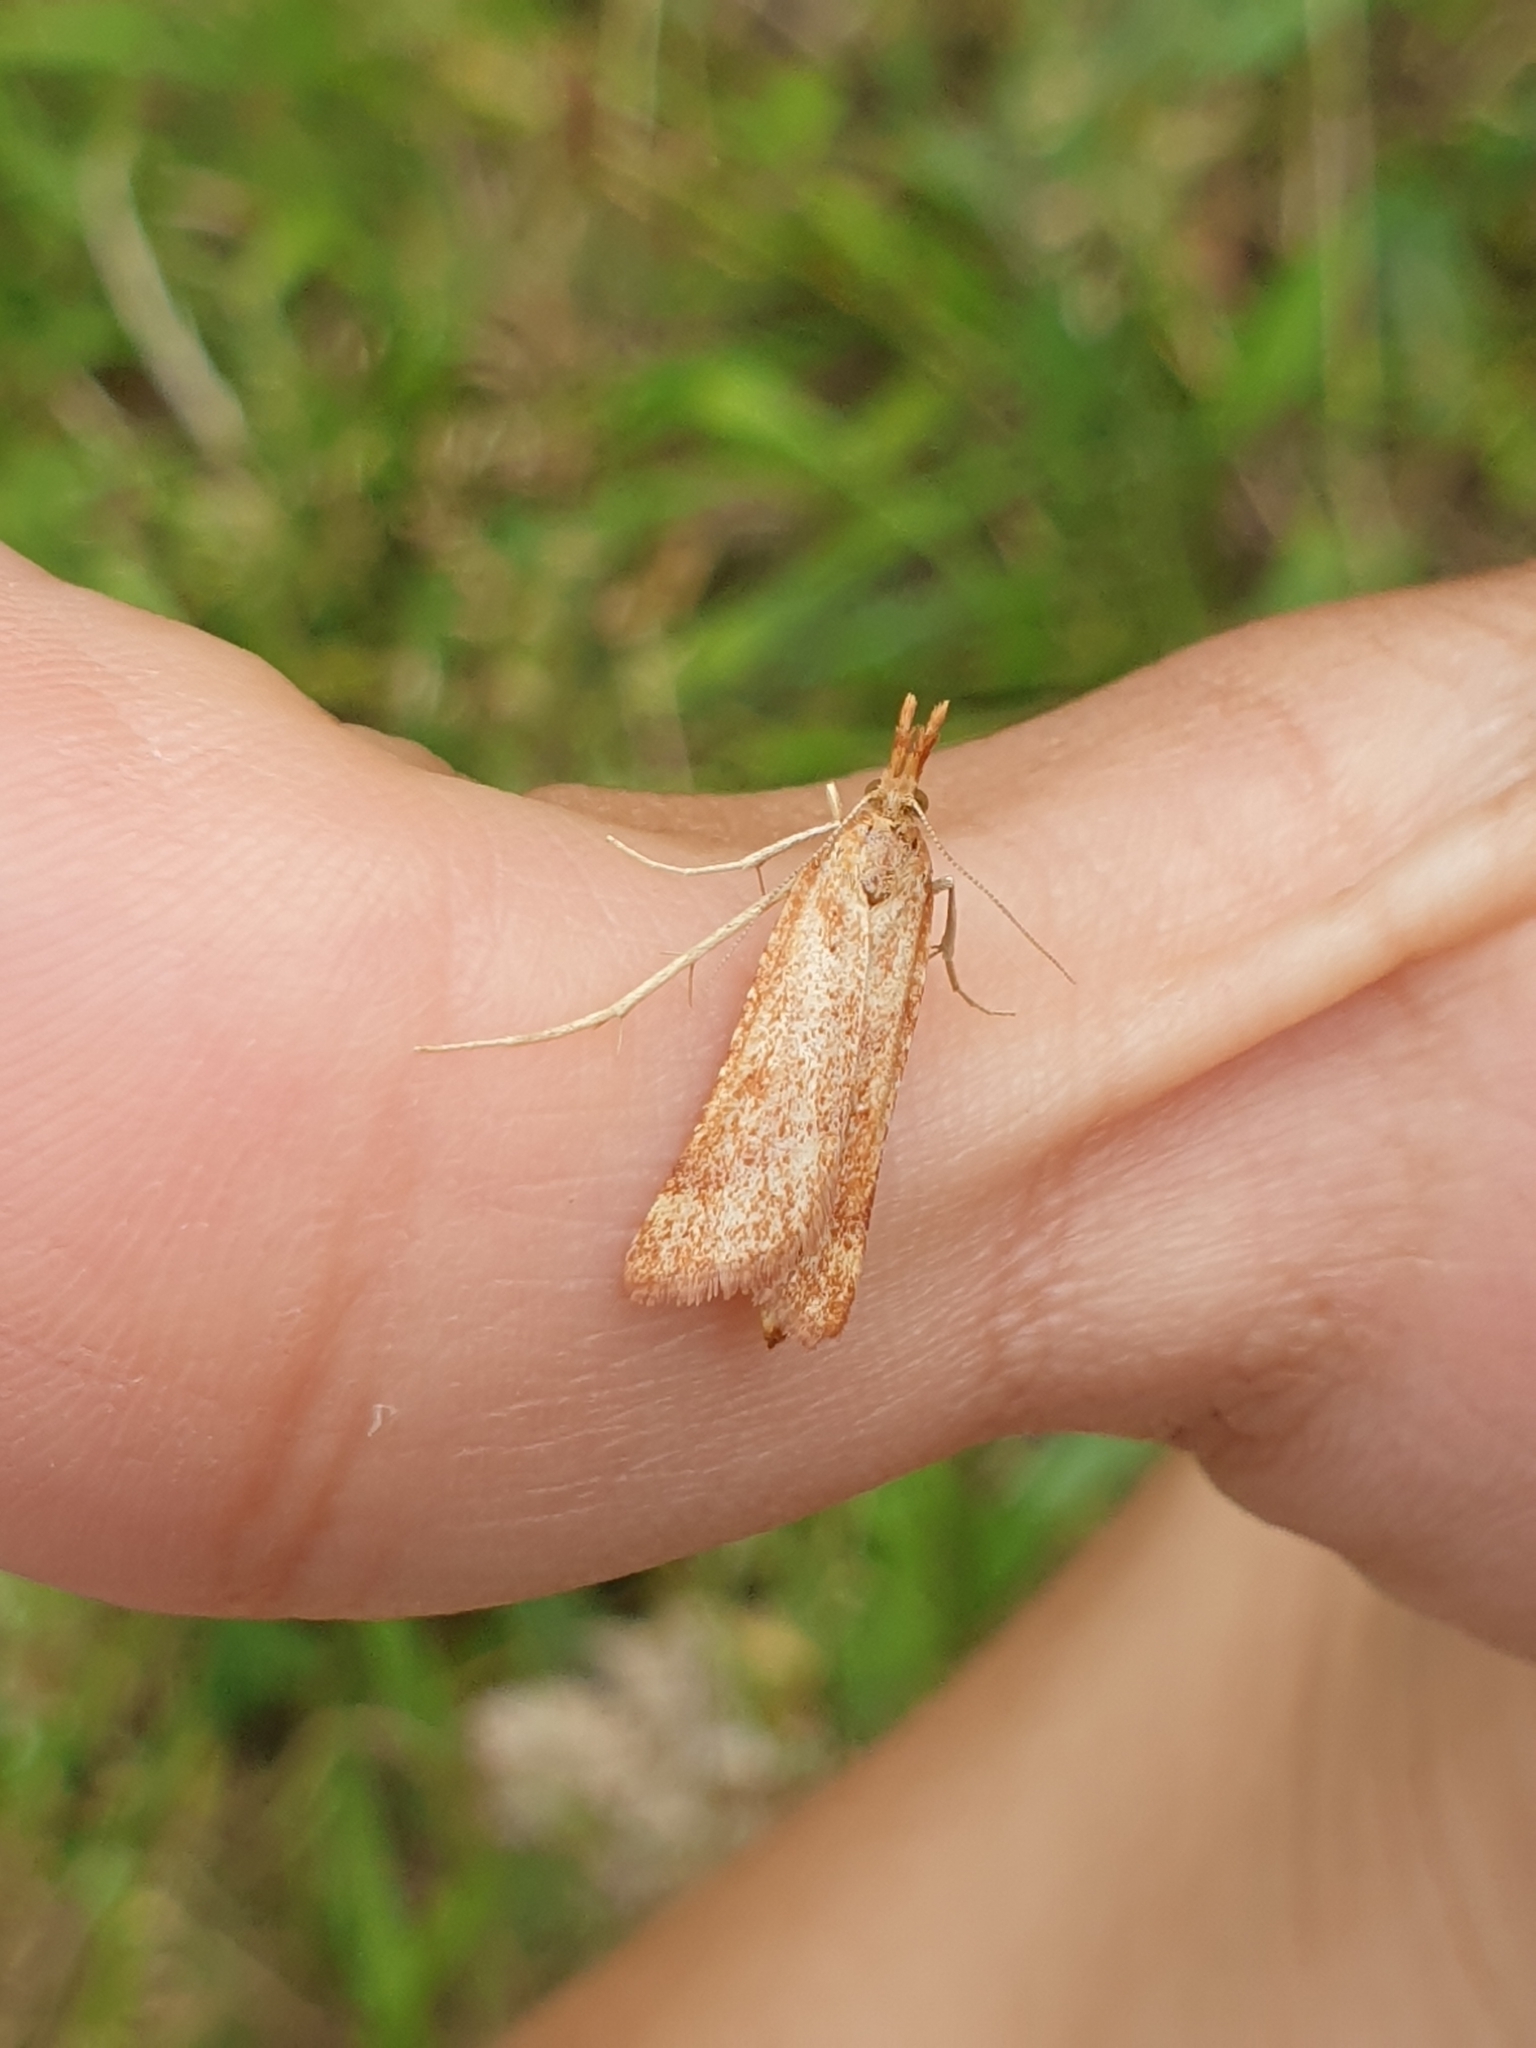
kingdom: Animalia
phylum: Arthropoda
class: Insecta
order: Lepidoptera
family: Pyralidae
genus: Synaphe
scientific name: Synaphe punctalis
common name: Long-legged tabby
